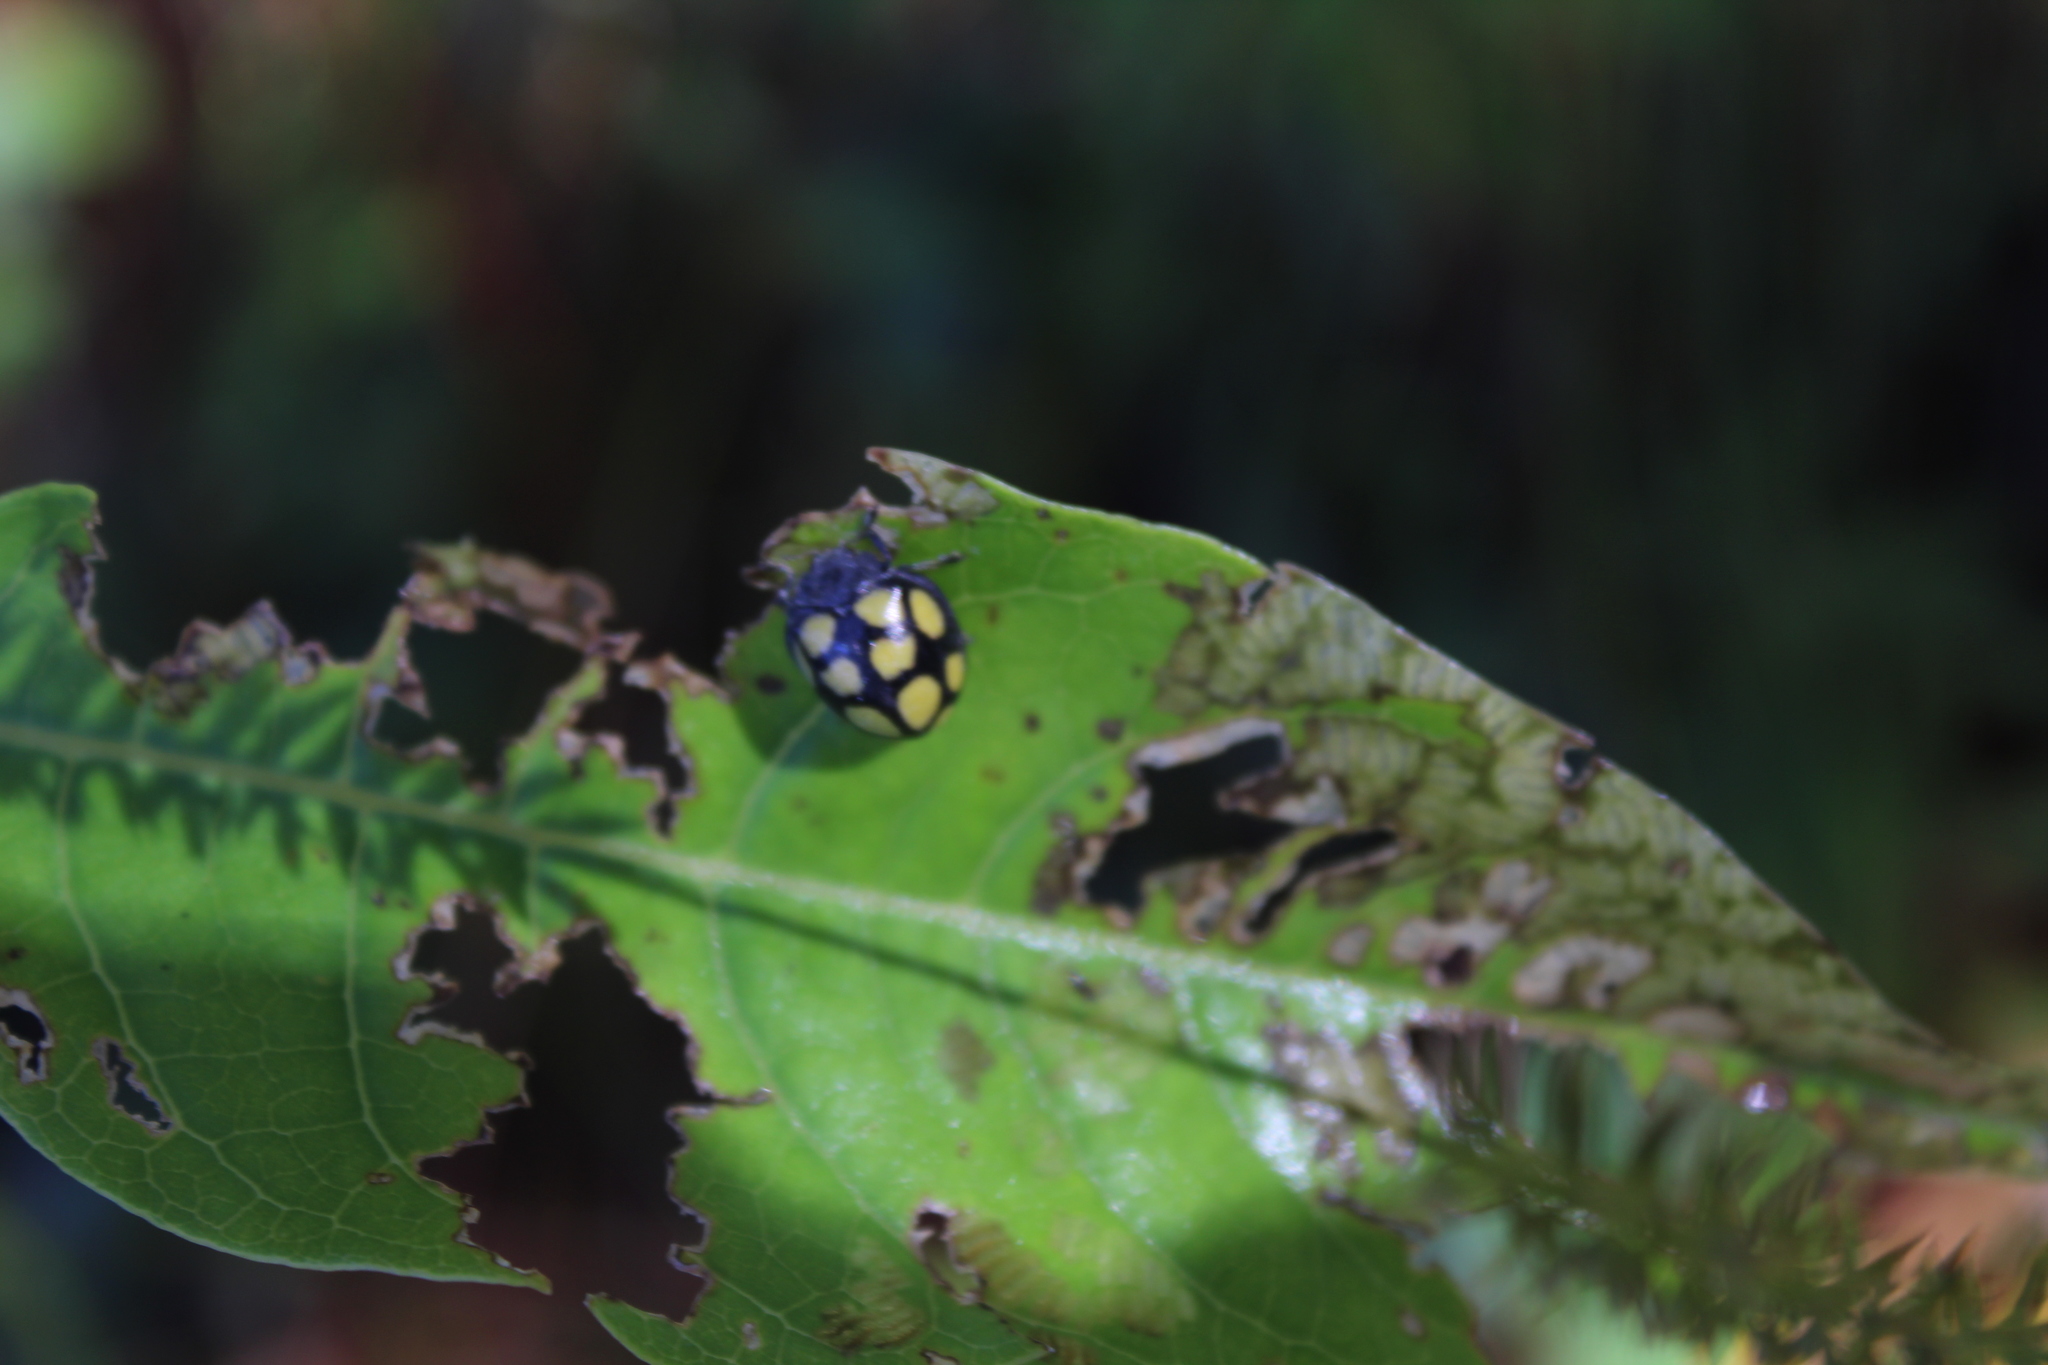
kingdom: Animalia
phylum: Arthropoda
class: Insecta
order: Coleoptera
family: Coccinellidae
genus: Epilachna
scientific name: Epilachna
